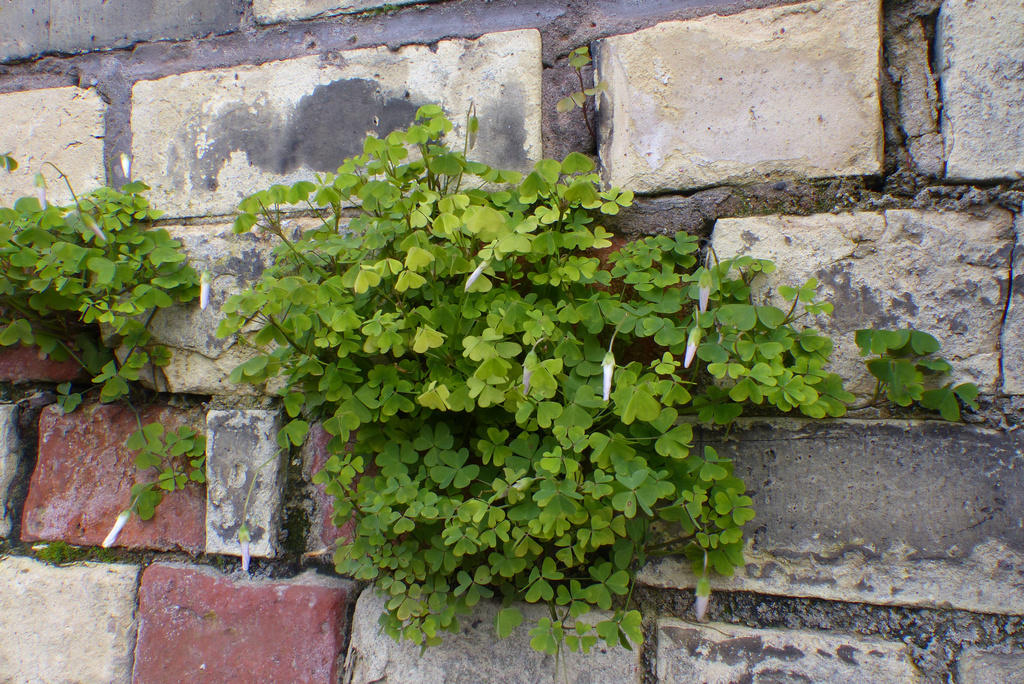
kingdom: Plantae
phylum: Tracheophyta
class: Magnoliopsida
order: Oxalidales
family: Oxalidaceae
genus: Oxalis
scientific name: Oxalis incarnata
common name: Pale pink-sorrel
